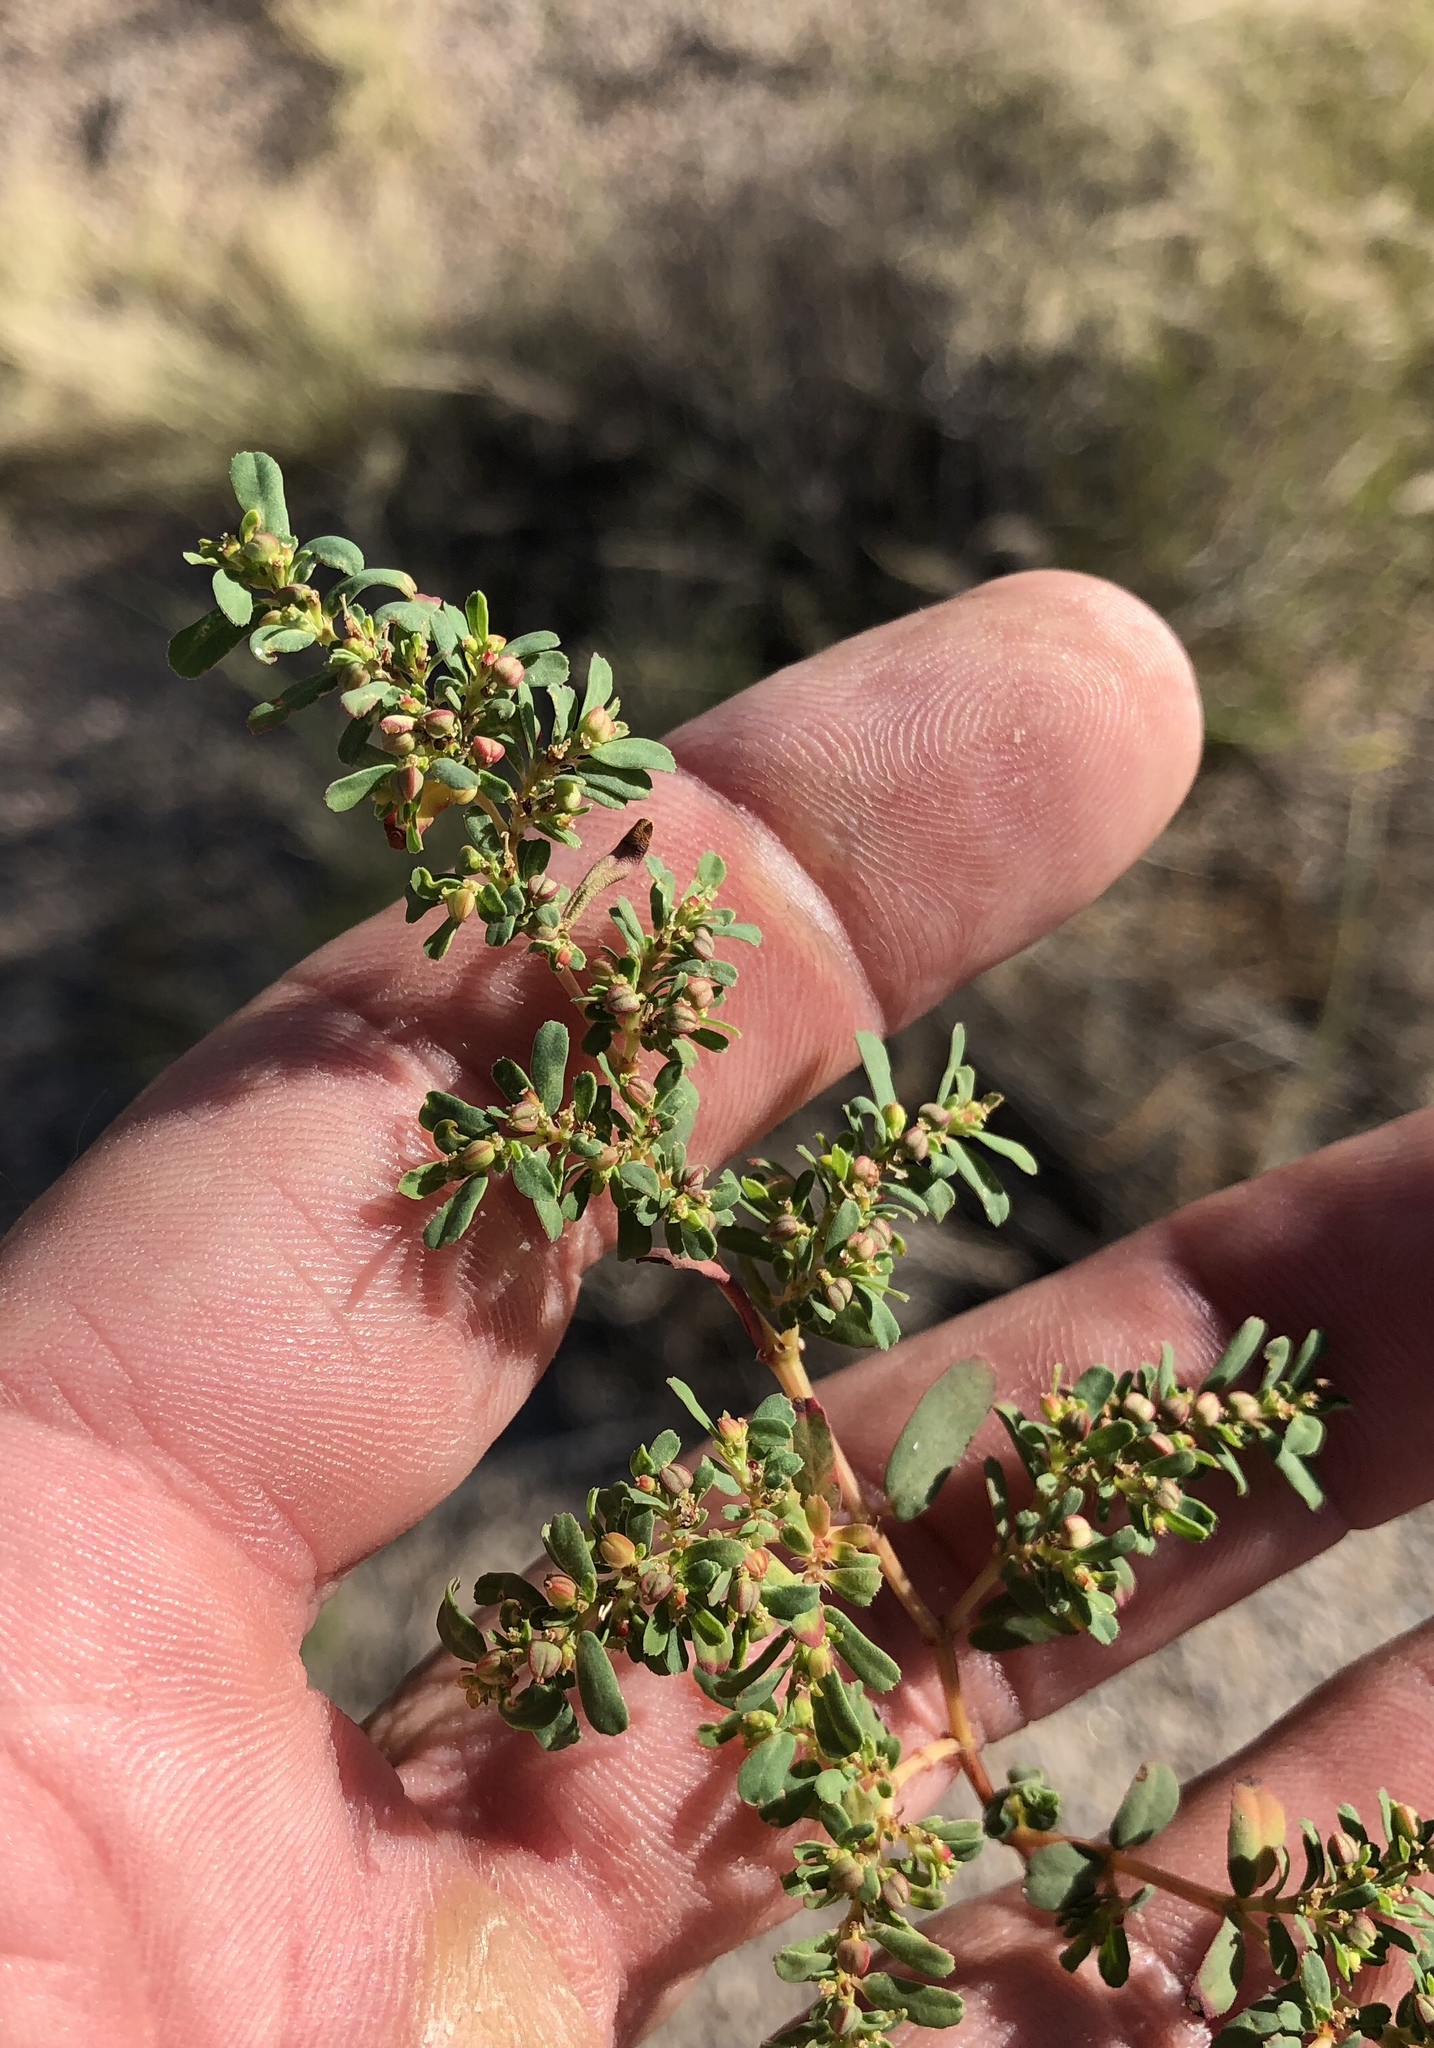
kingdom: Plantae
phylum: Tracheophyta
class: Magnoliopsida
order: Malpighiales
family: Euphorbiaceae
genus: Euphorbia
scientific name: Euphorbia serpillifolia
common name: Thyme-leaf spurge
